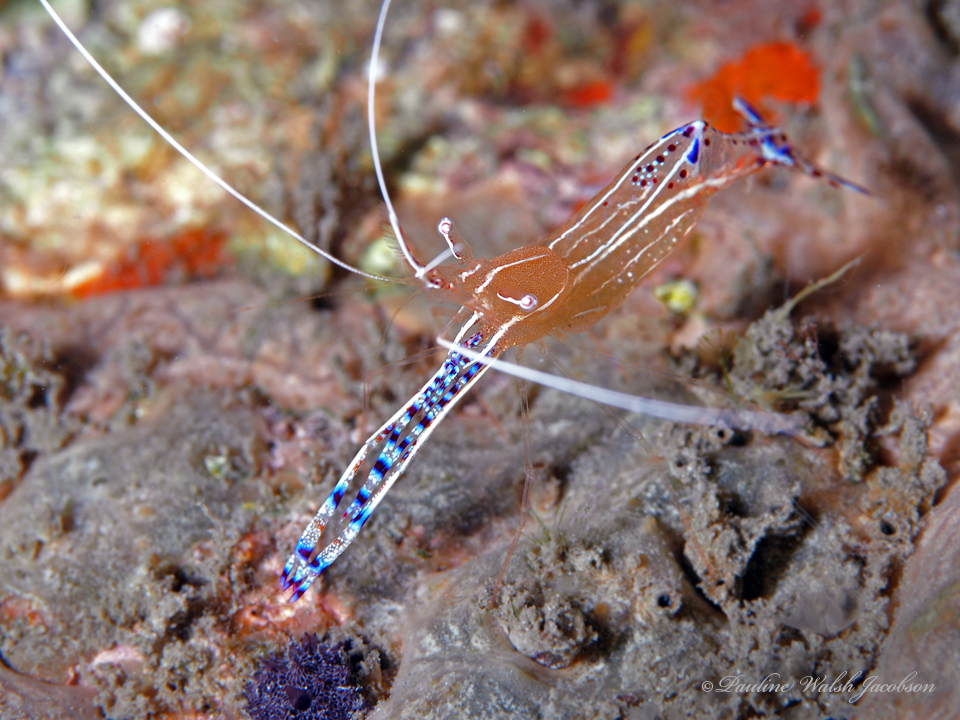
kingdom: Animalia
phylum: Arthropoda
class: Malacostraca
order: Decapoda
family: Palaemonidae
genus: Ancylomenes
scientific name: Ancylomenes pedersoni
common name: Pederson's cleaning shrimp
